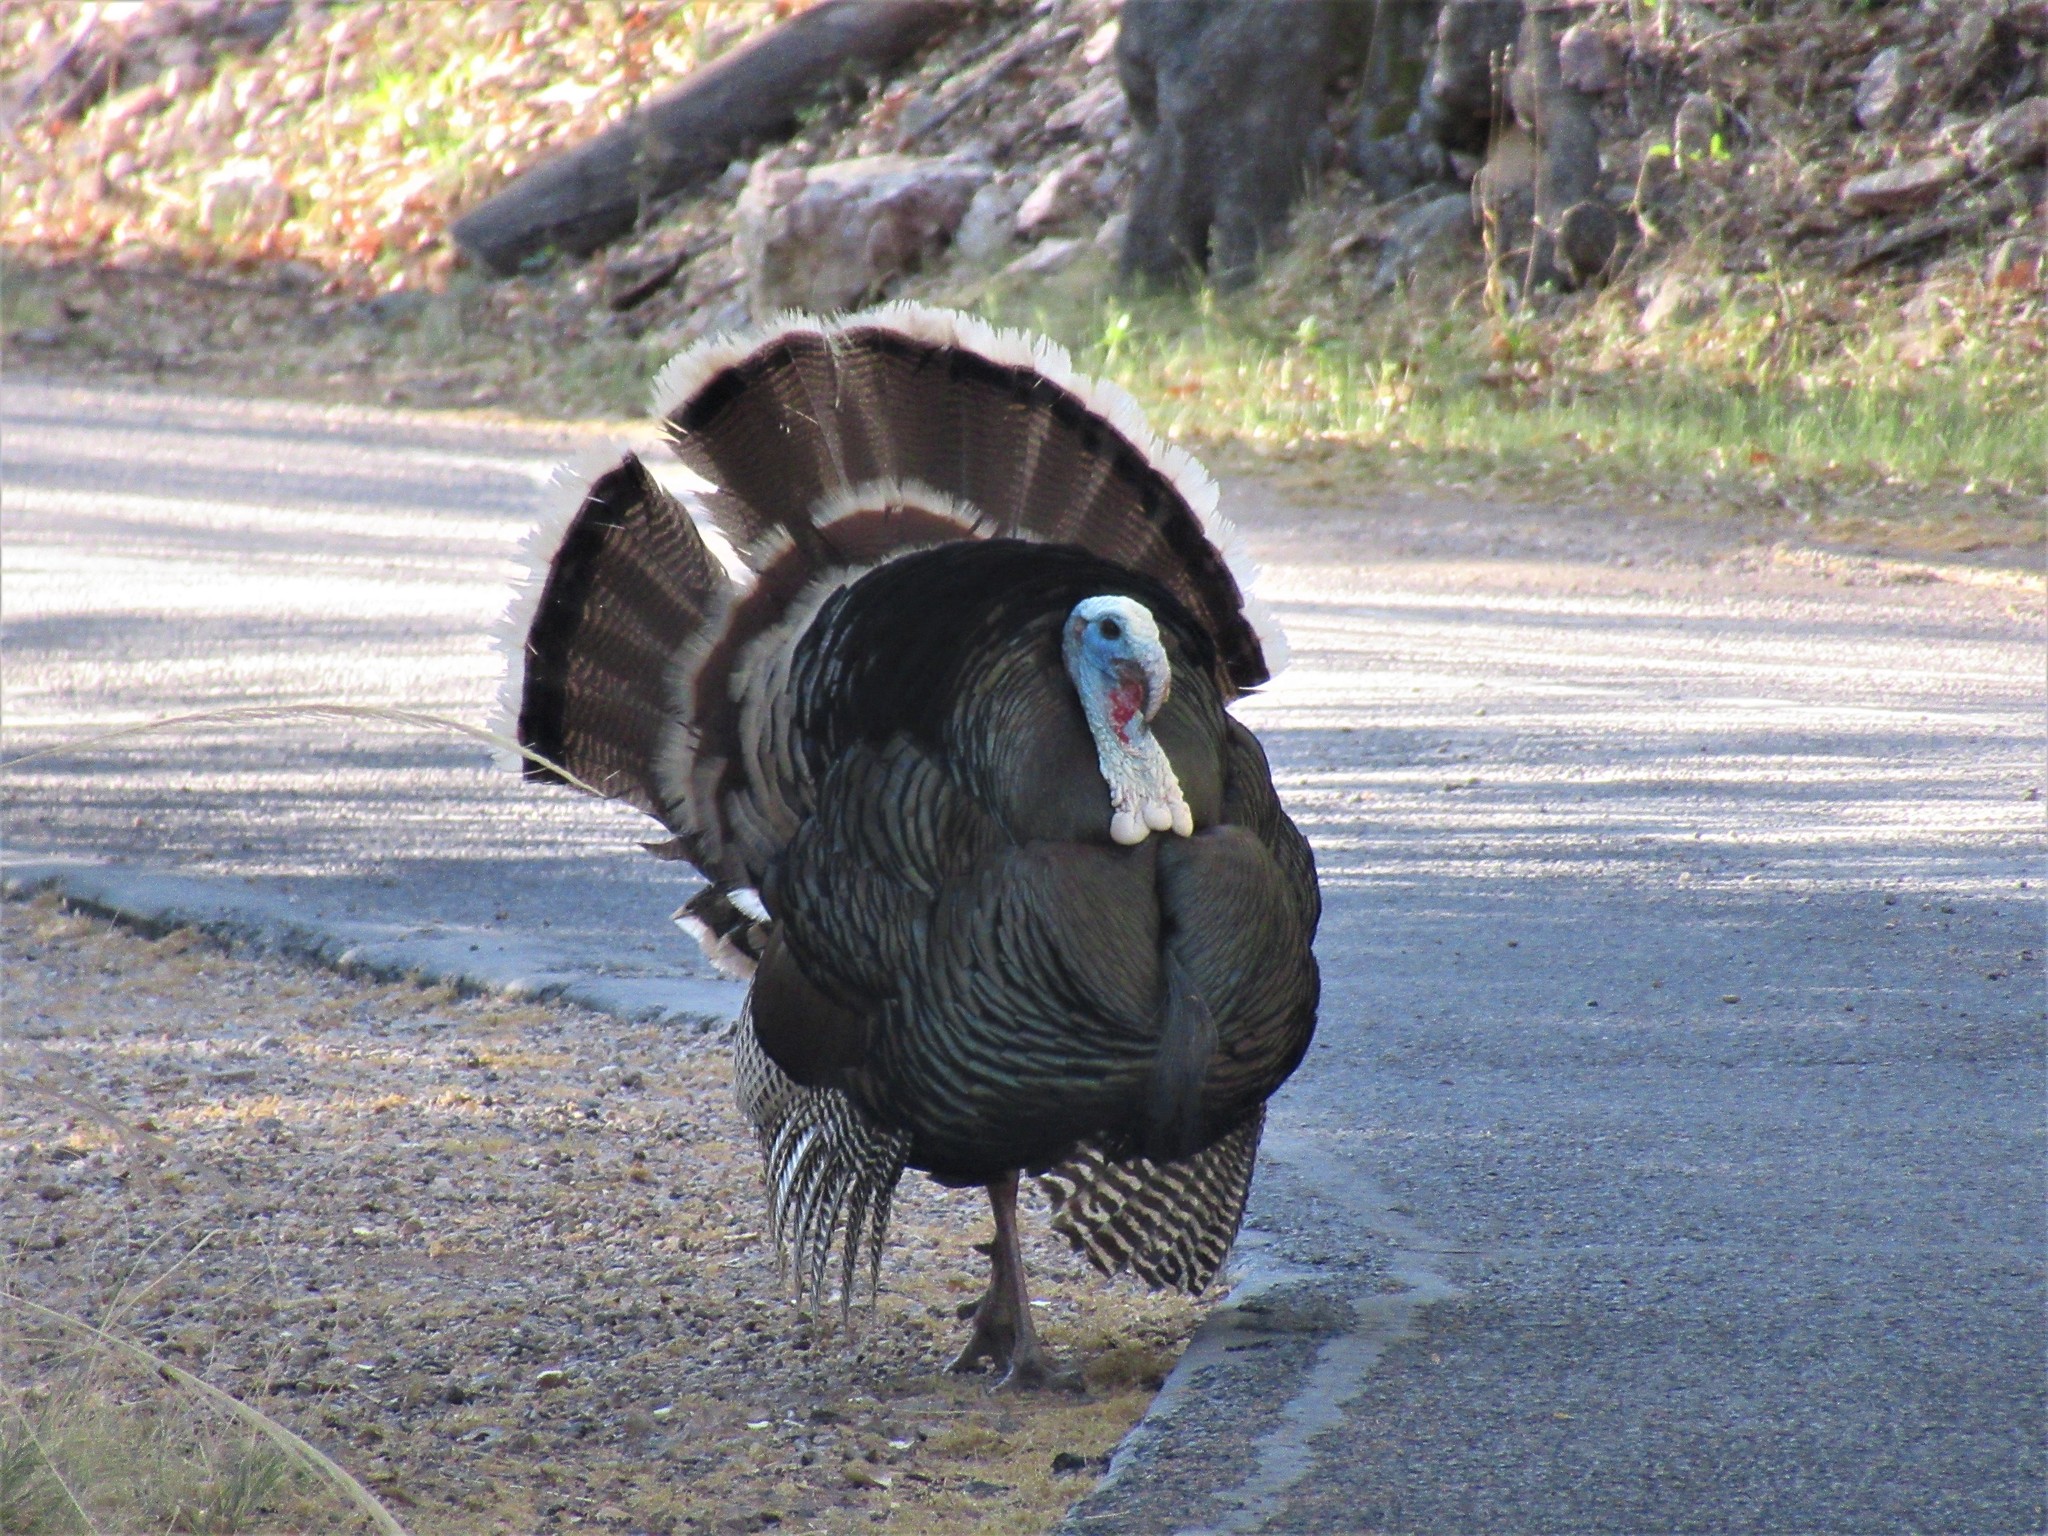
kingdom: Animalia
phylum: Chordata
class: Aves
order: Galliformes
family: Phasianidae
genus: Meleagris
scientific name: Meleagris gallopavo
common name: Wild turkey
